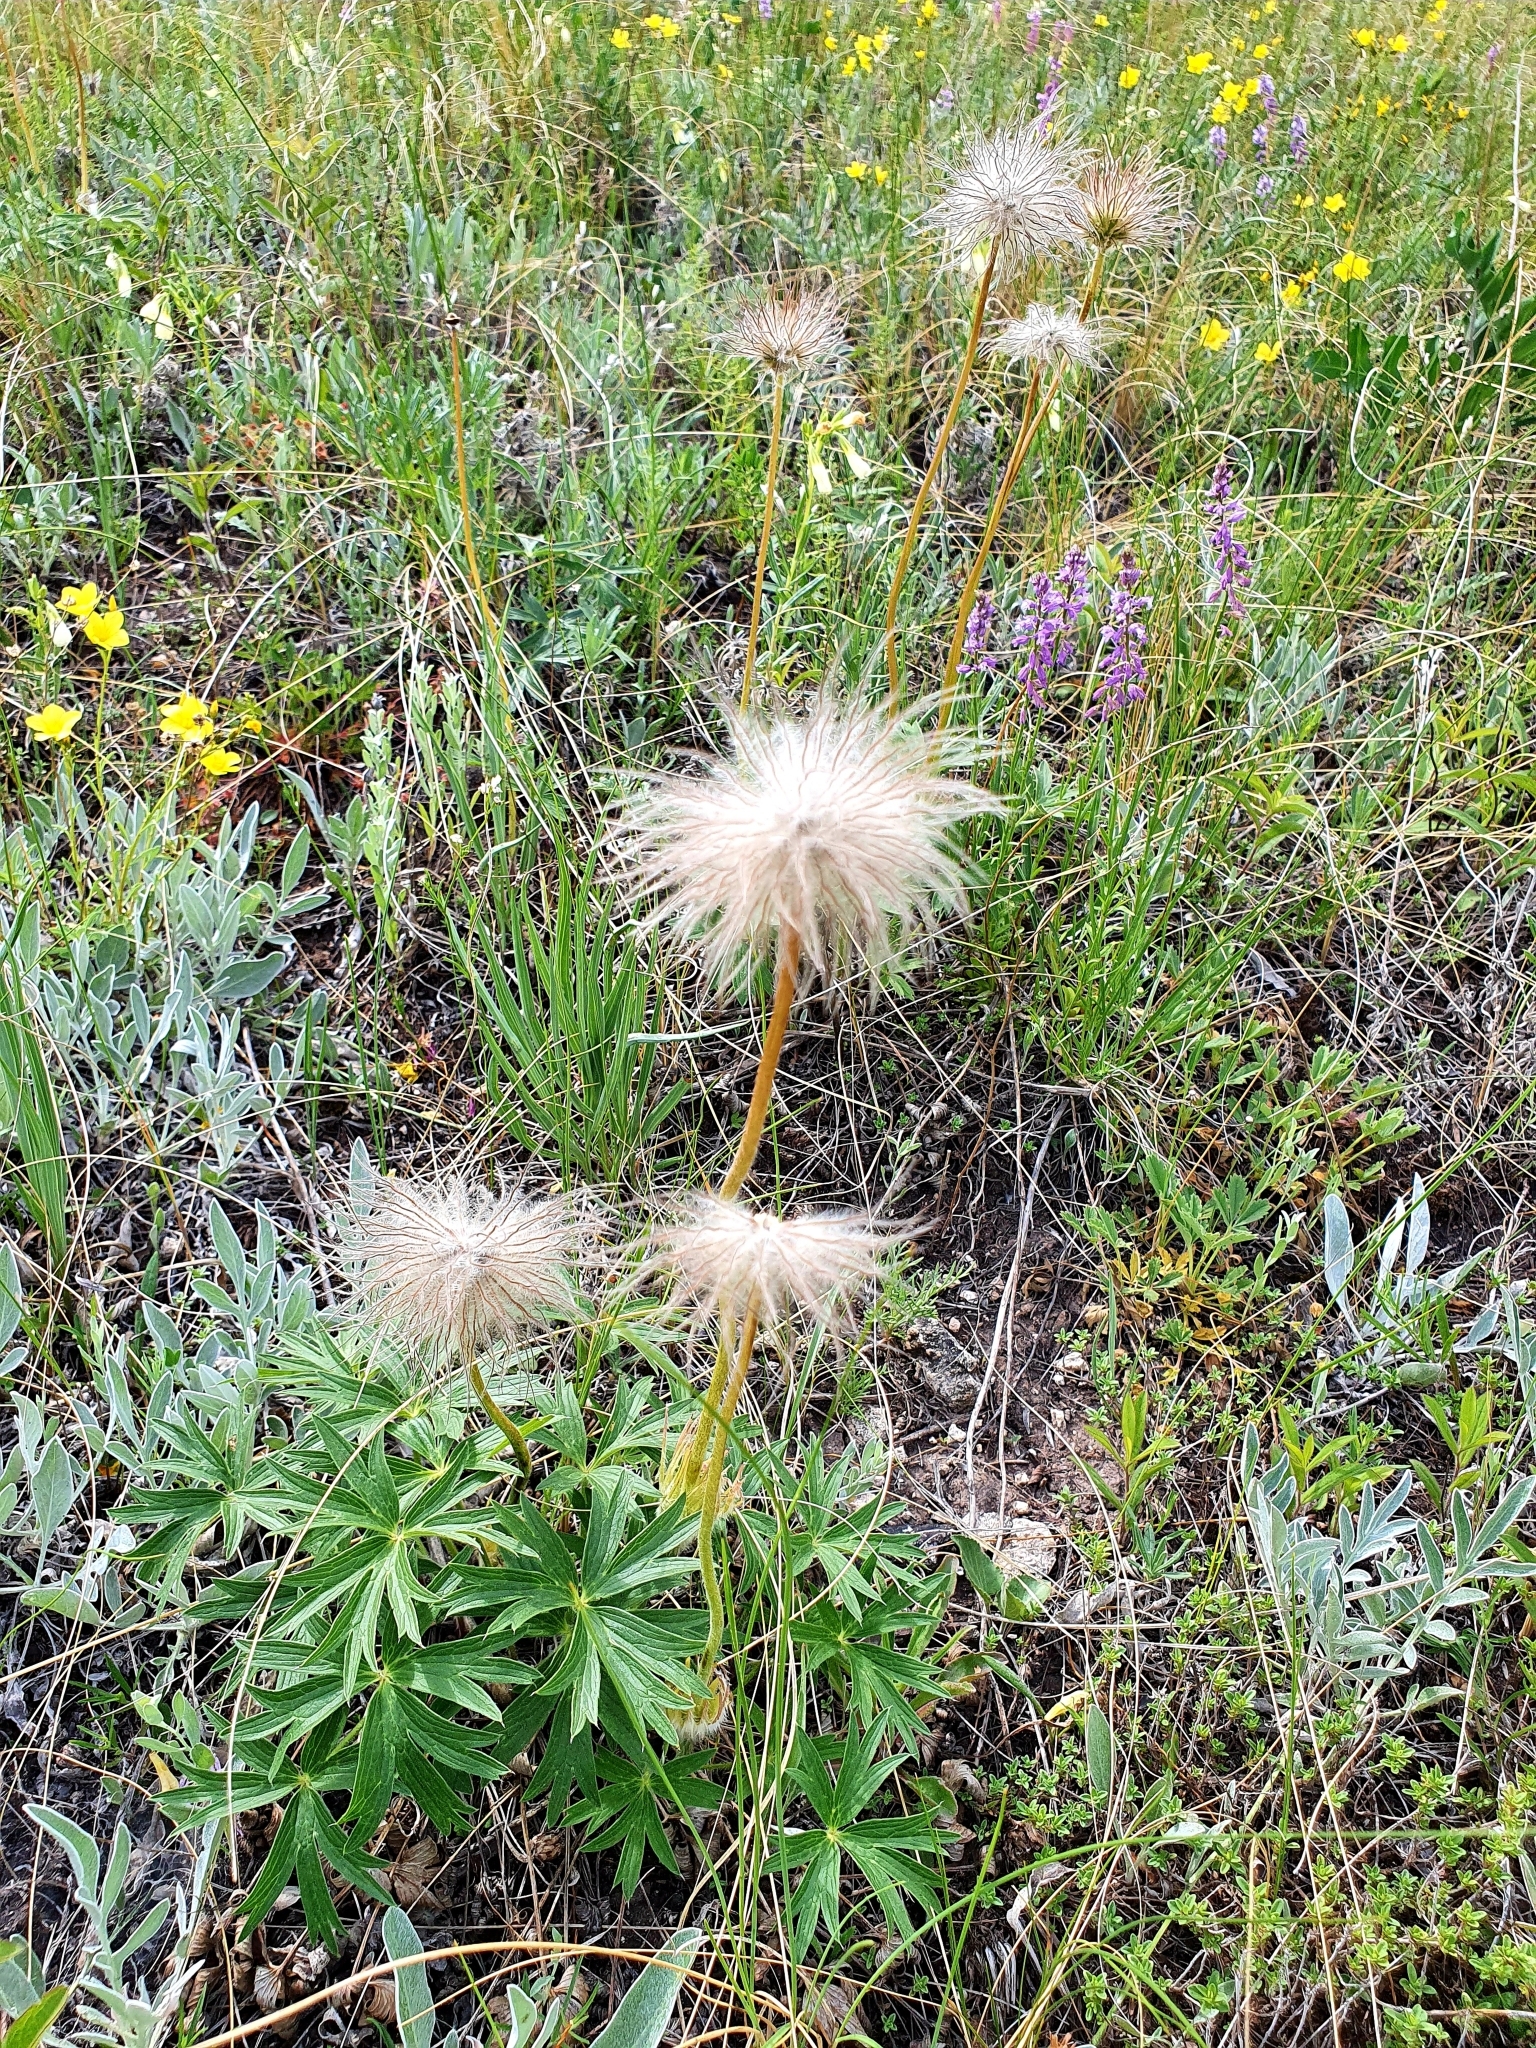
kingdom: Plantae
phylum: Tracheophyta
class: Magnoliopsida
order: Ranunculales
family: Ranunculaceae
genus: Pulsatilla
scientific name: Pulsatilla patens
